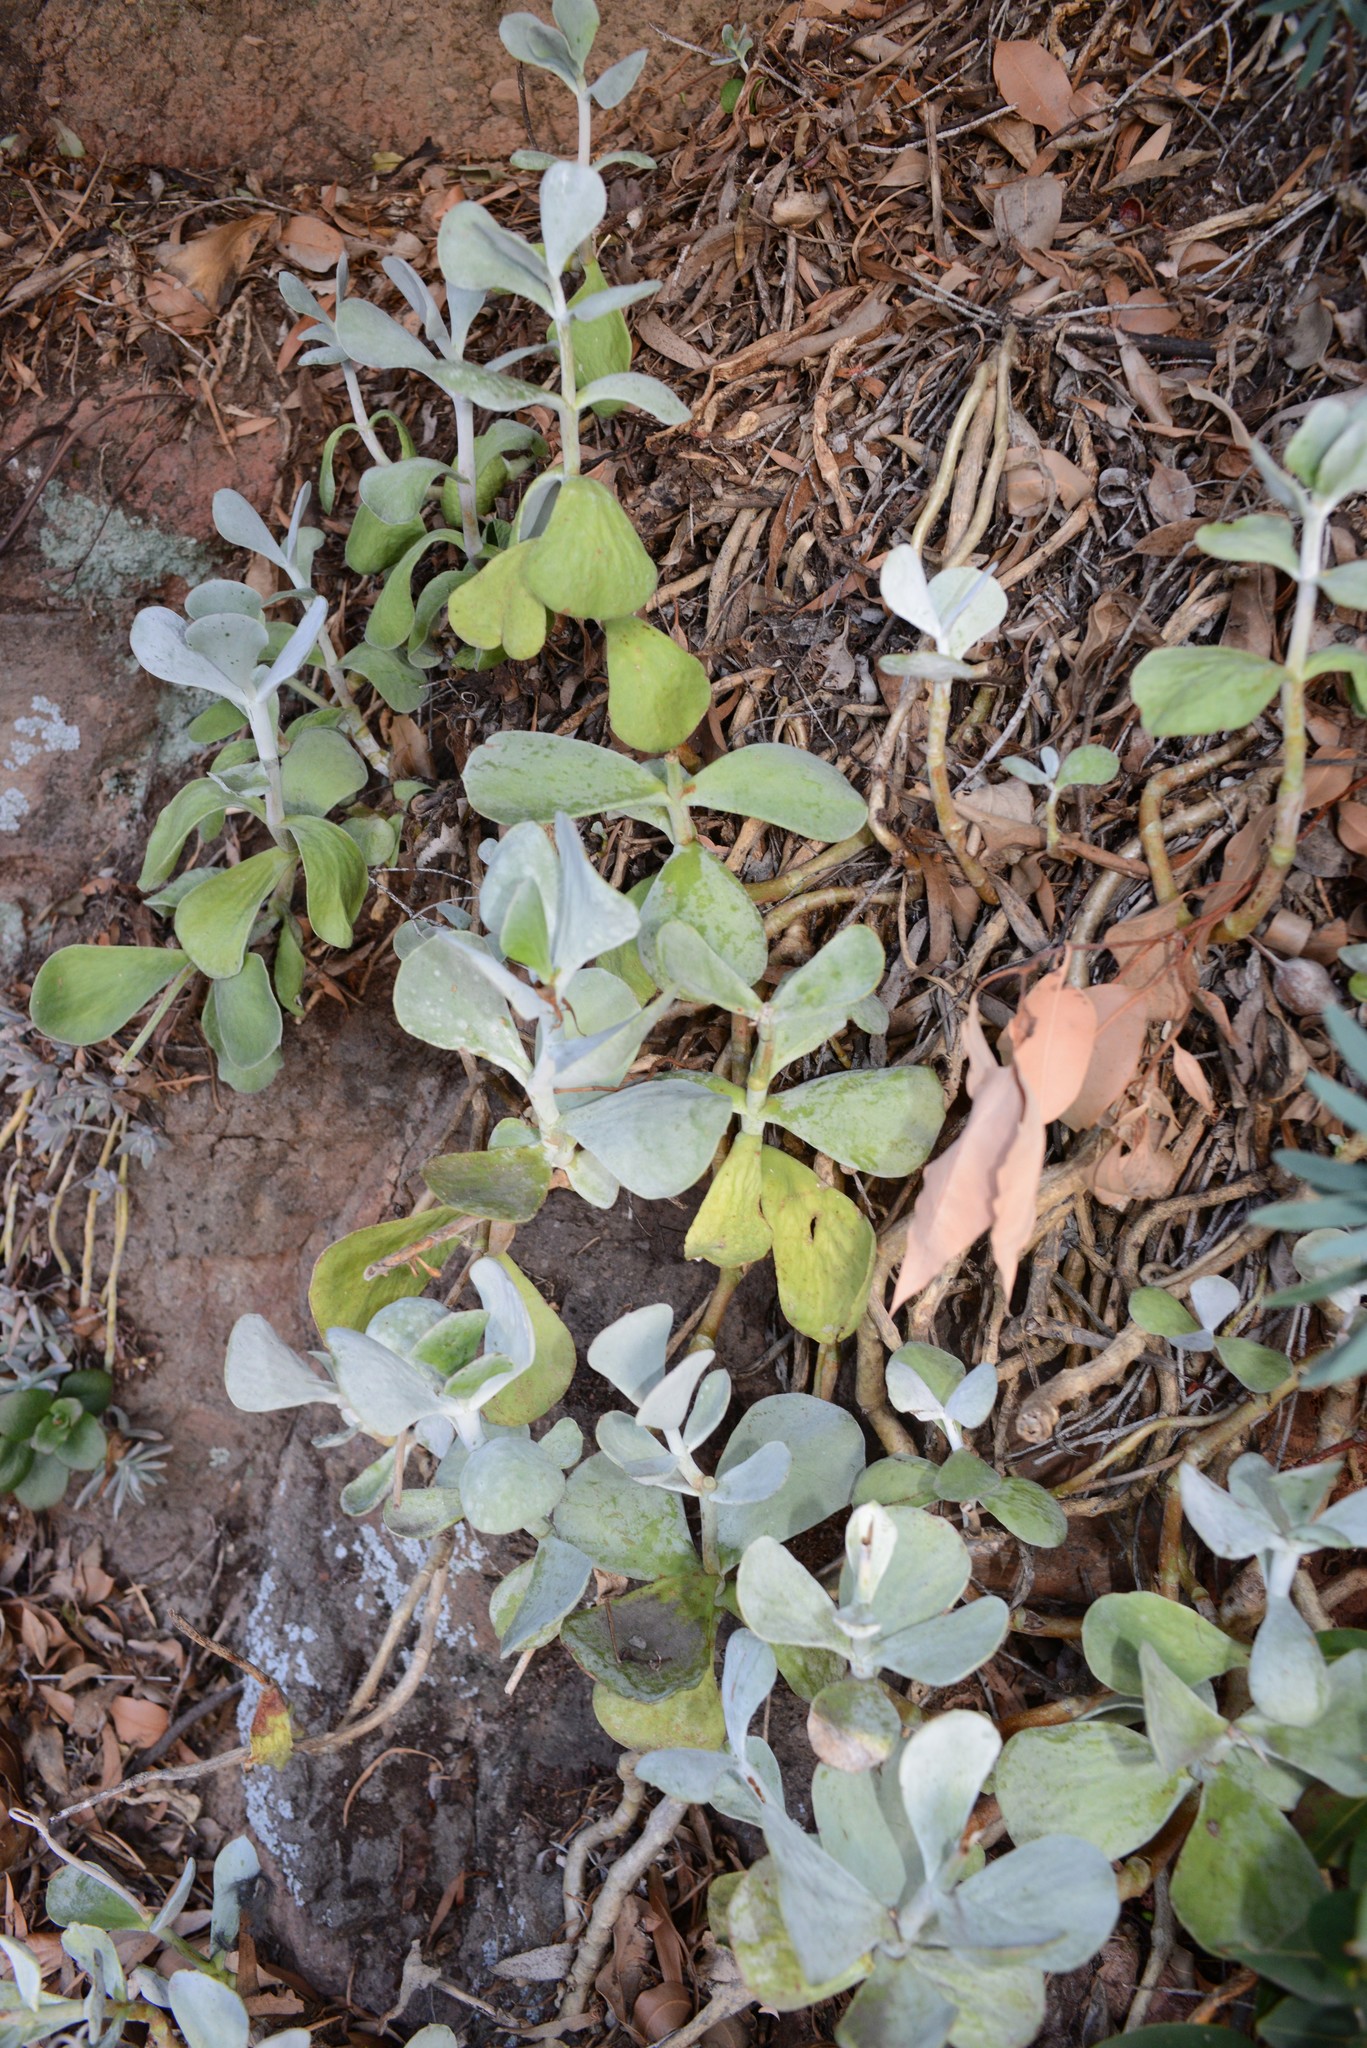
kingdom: Plantae
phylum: Tracheophyta
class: Magnoliopsida
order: Saxifragales
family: Crassulaceae
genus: Cotyledon
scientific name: Cotyledon orbiculata
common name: Pig's ear
